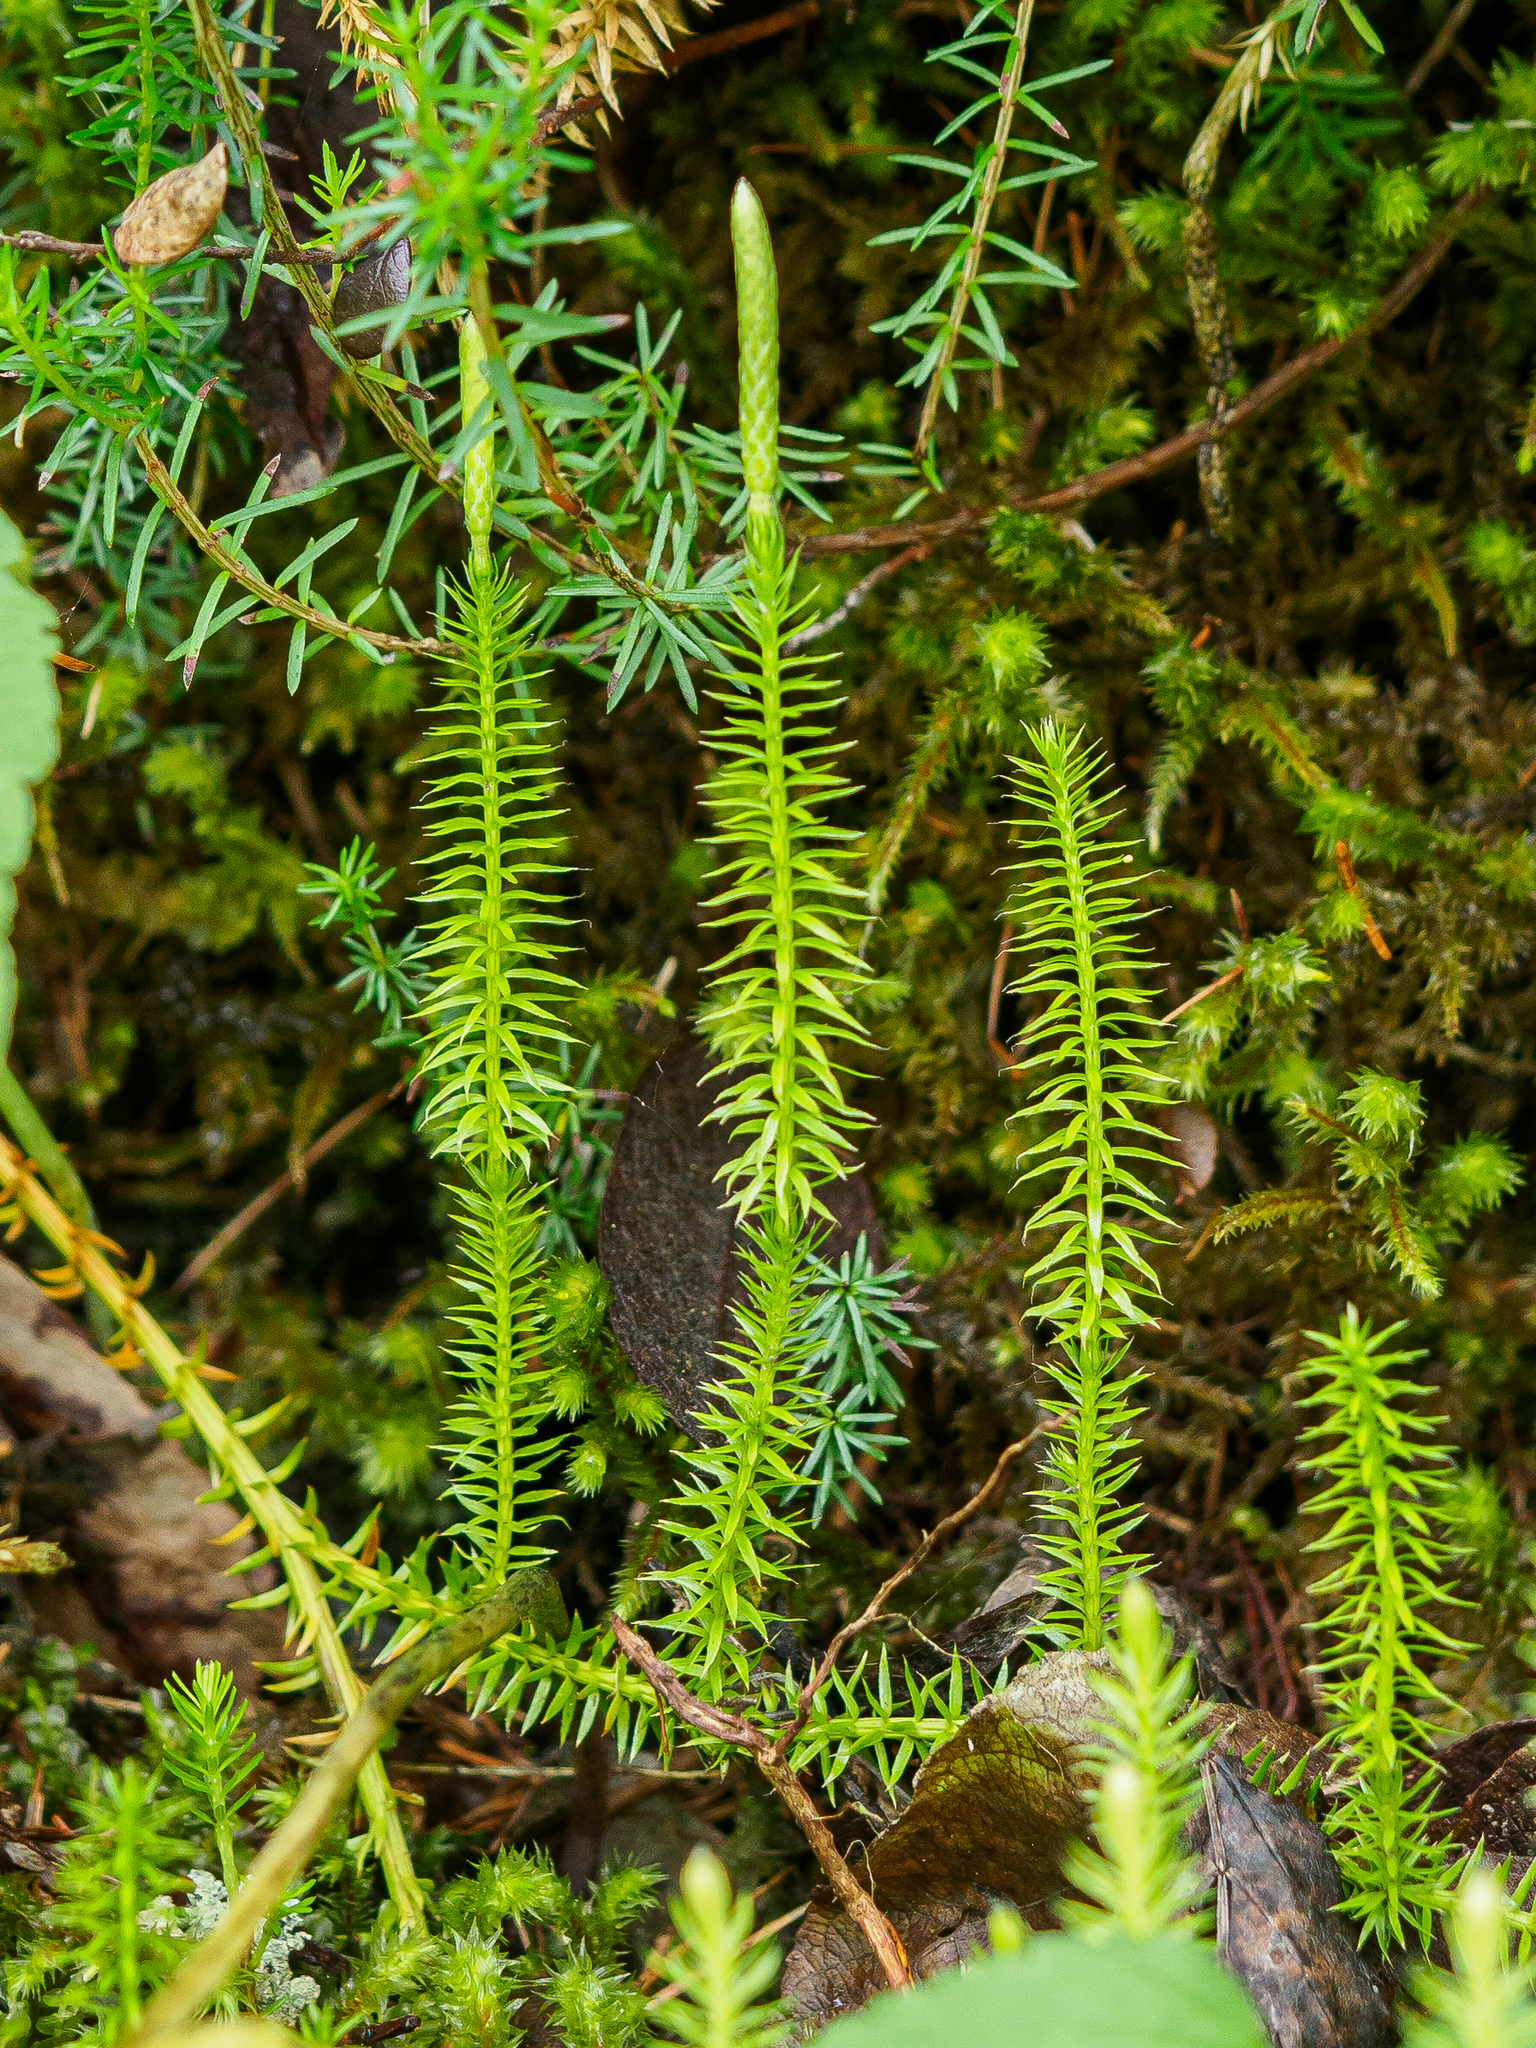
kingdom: Plantae
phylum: Tracheophyta
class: Lycopodiopsida
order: Lycopodiales
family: Lycopodiaceae
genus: Spinulum
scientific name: Spinulum annotinum
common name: Interrupted club-moss
